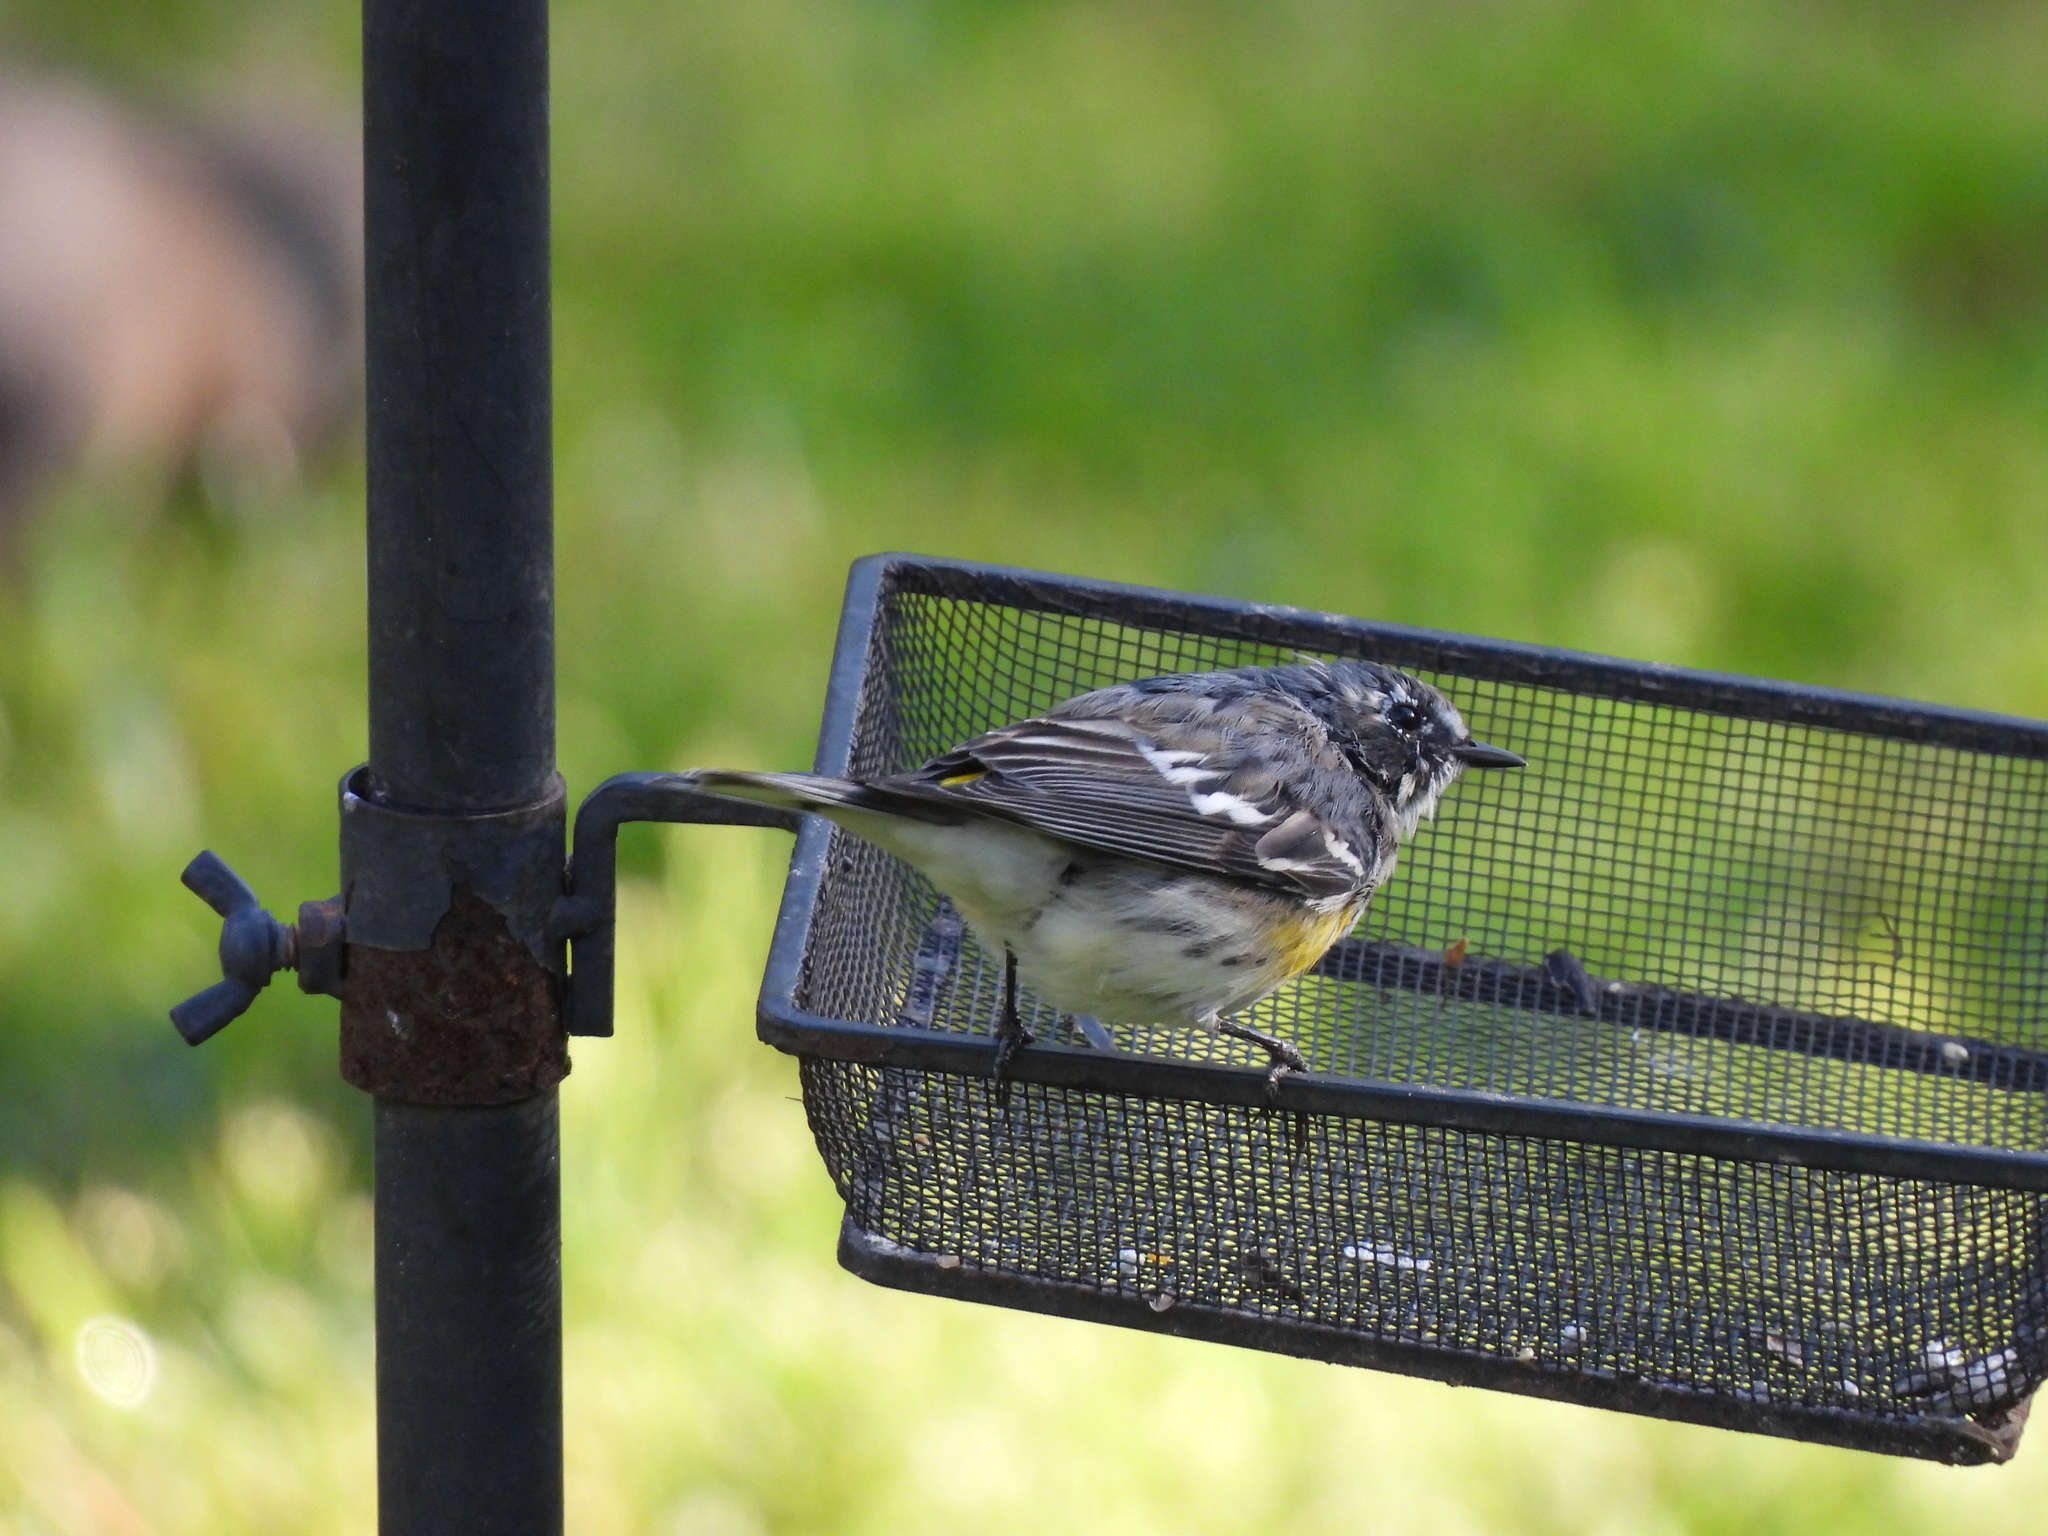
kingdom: Animalia
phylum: Chordata
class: Aves
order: Passeriformes
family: Parulidae
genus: Setophaga
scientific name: Setophaga coronata
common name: Myrtle warbler
